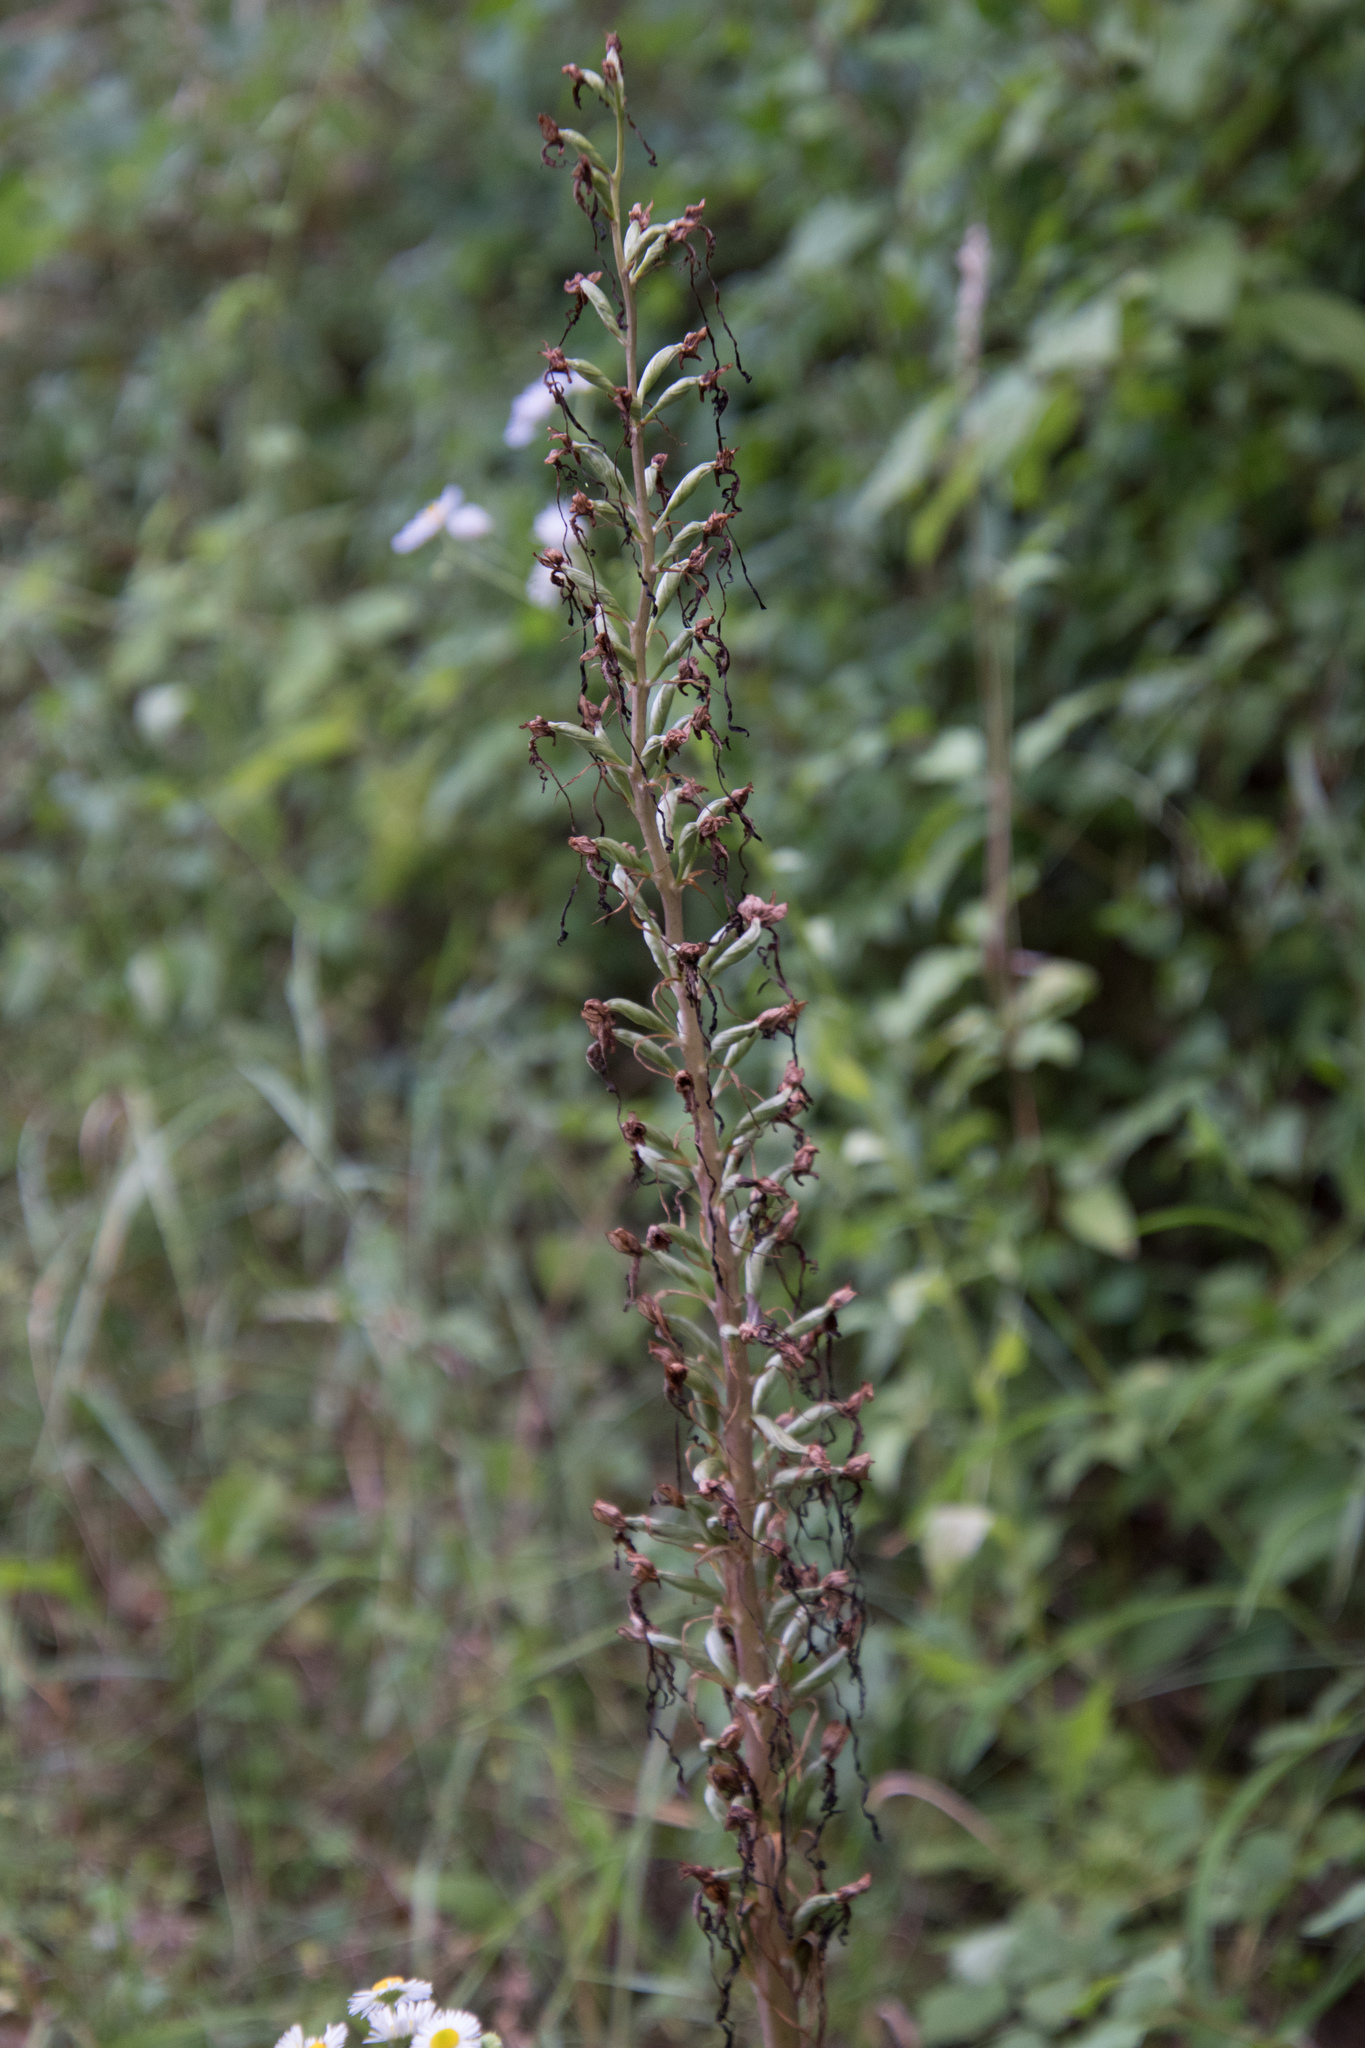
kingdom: Plantae
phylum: Tracheophyta
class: Liliopsida
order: Asparagales
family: Orchidaceae
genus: Himantoglossum
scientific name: Himantoglossum hircinum
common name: Lizard orchid
